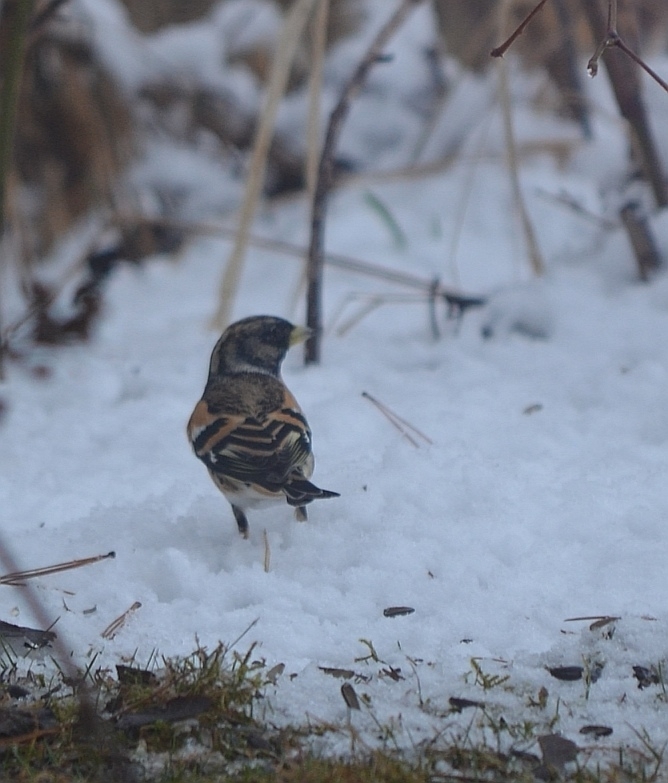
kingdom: Animalia
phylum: Chordata
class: Aves
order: Passeriformes
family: Fringillidae
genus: Fringilla
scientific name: Fringilla montifringilla
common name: Brambling
